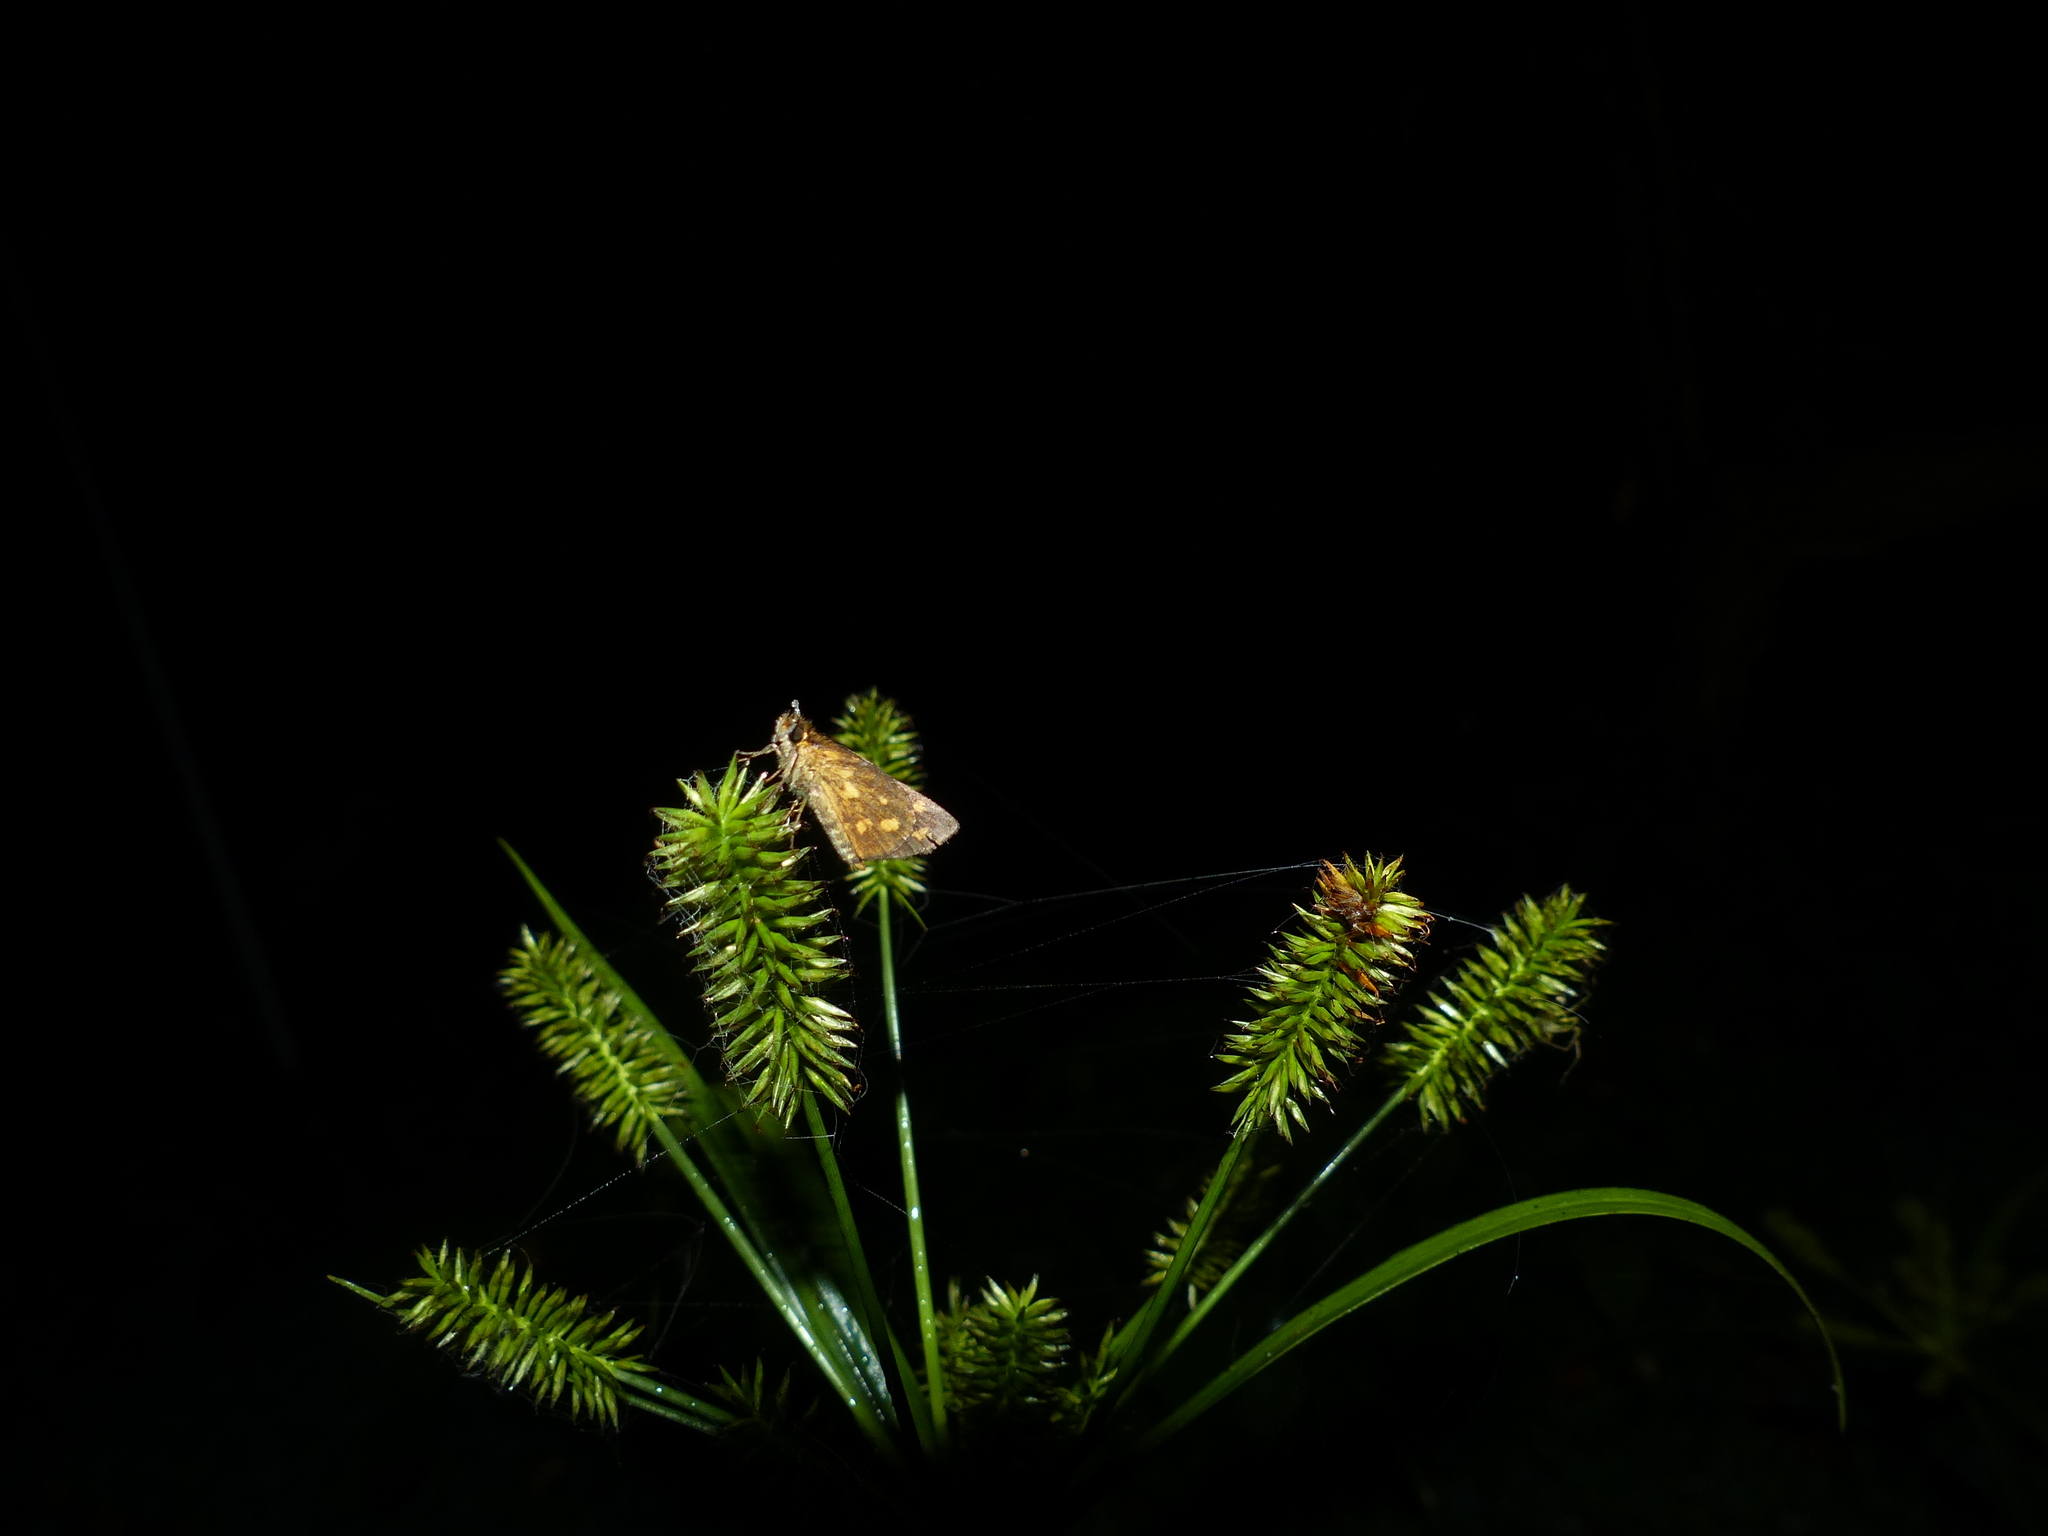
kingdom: Animalia
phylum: Arthropoda
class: Insecta
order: Lepidoptera
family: Hesperiidae
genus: Taractrocera
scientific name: Taractrocera ceramas
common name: Tamil grass dart
